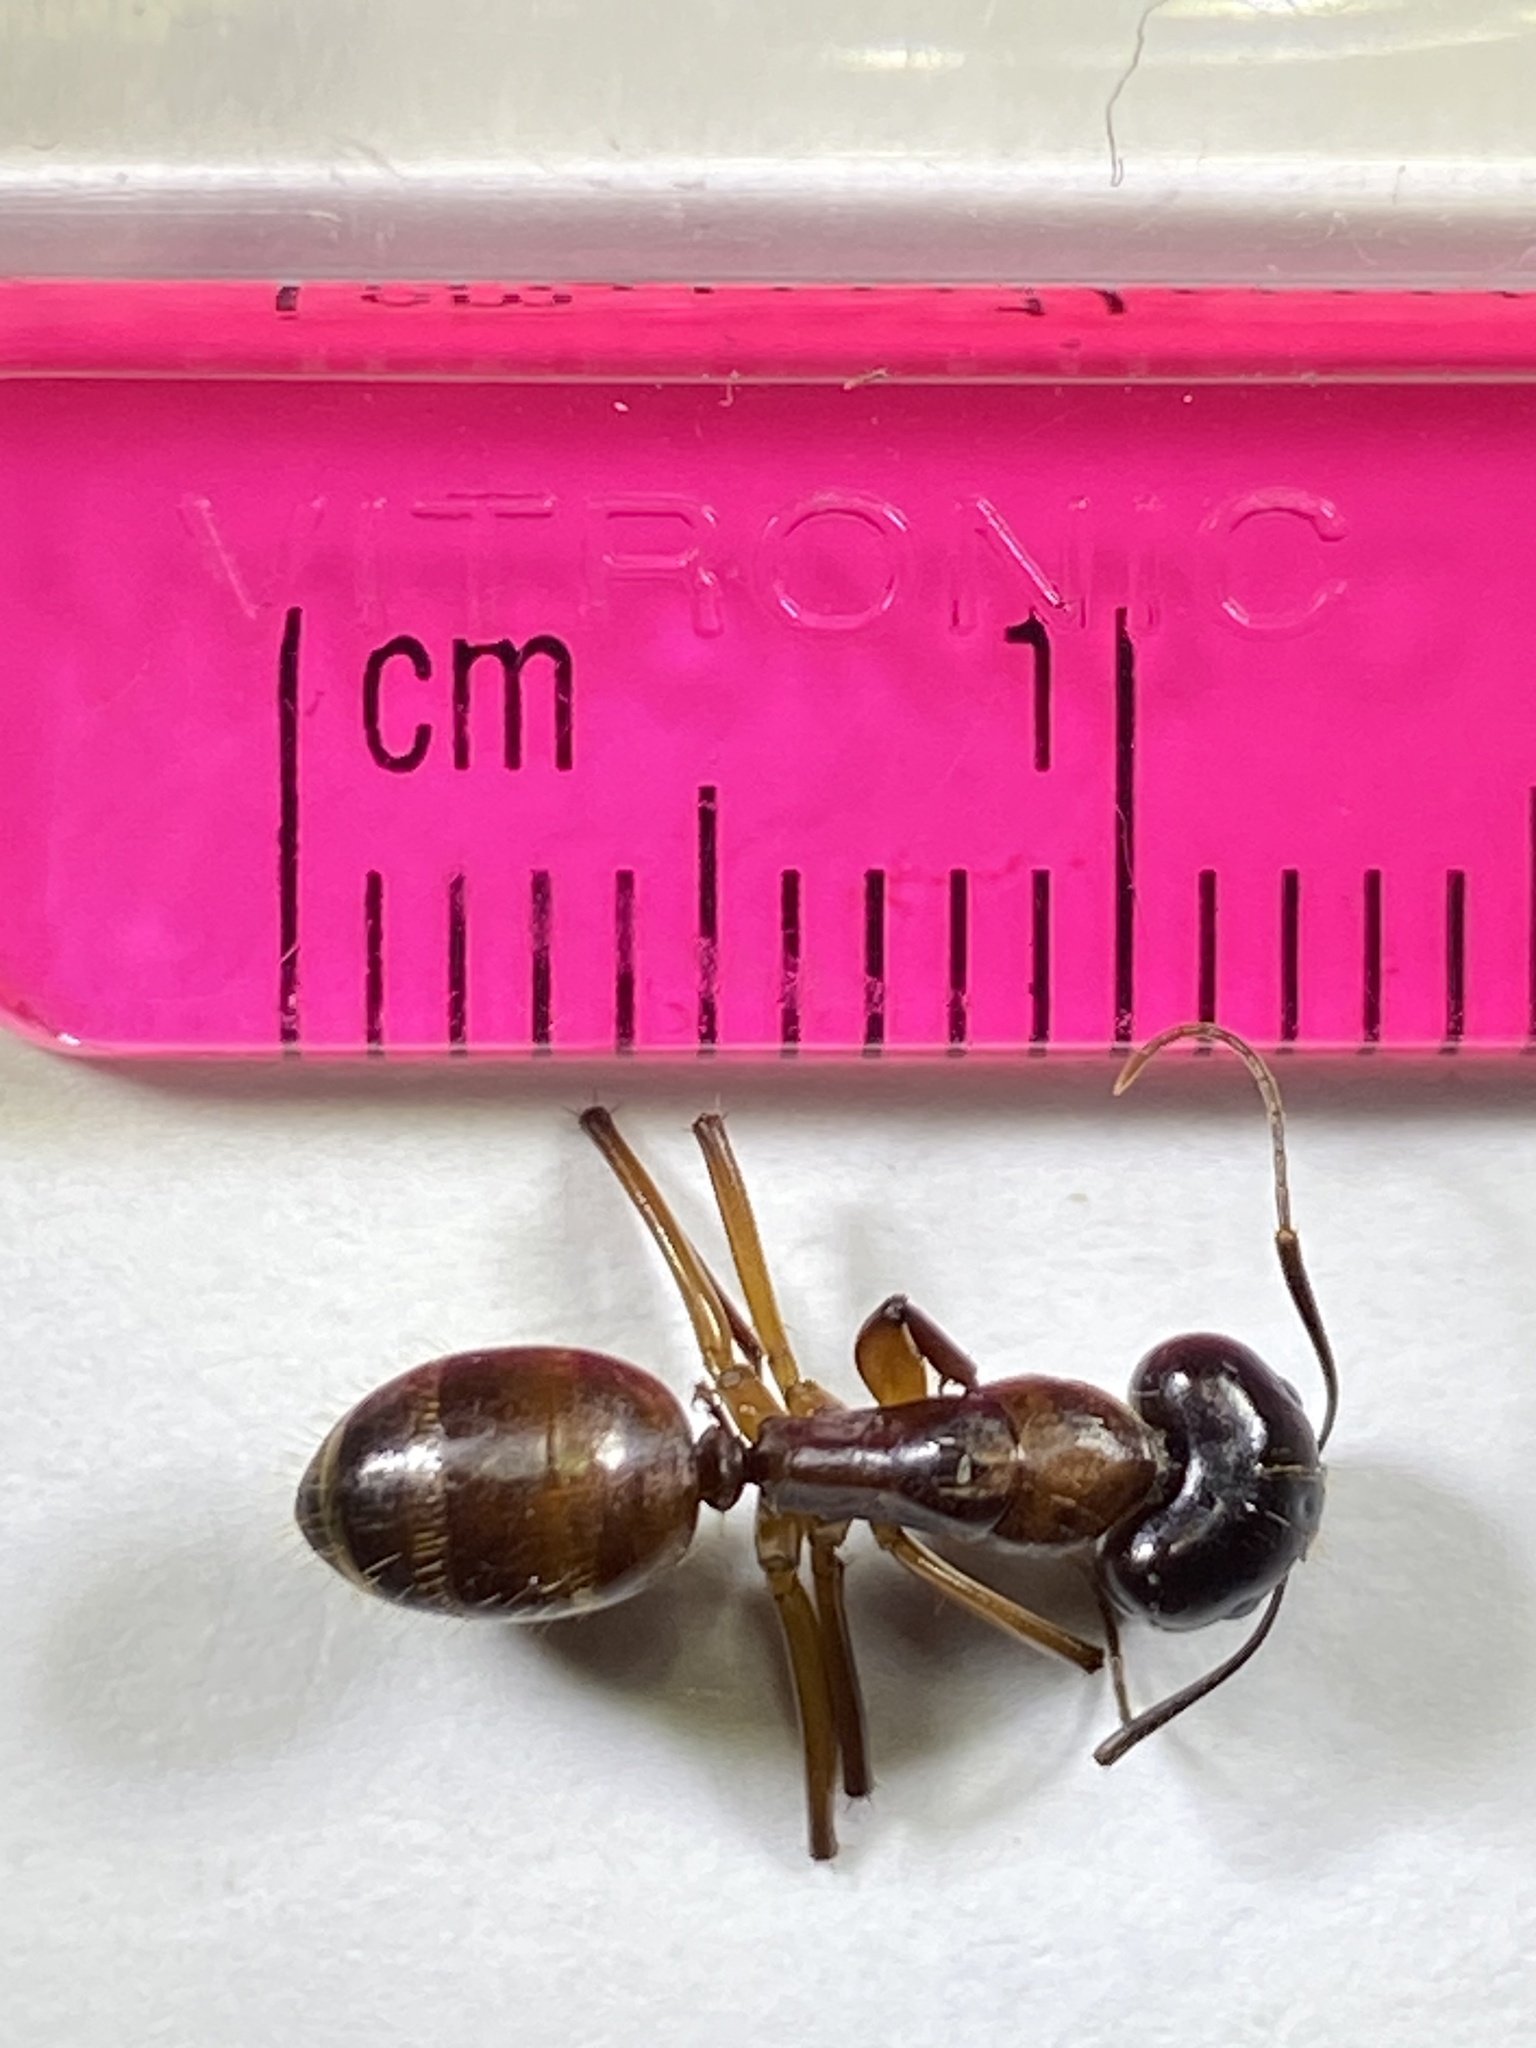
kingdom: Animalia
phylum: Arthropoda
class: Insecta
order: Hymenoptera
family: Formicidae
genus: Camponotus
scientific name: Camponotus americanus
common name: American carpenter ant
